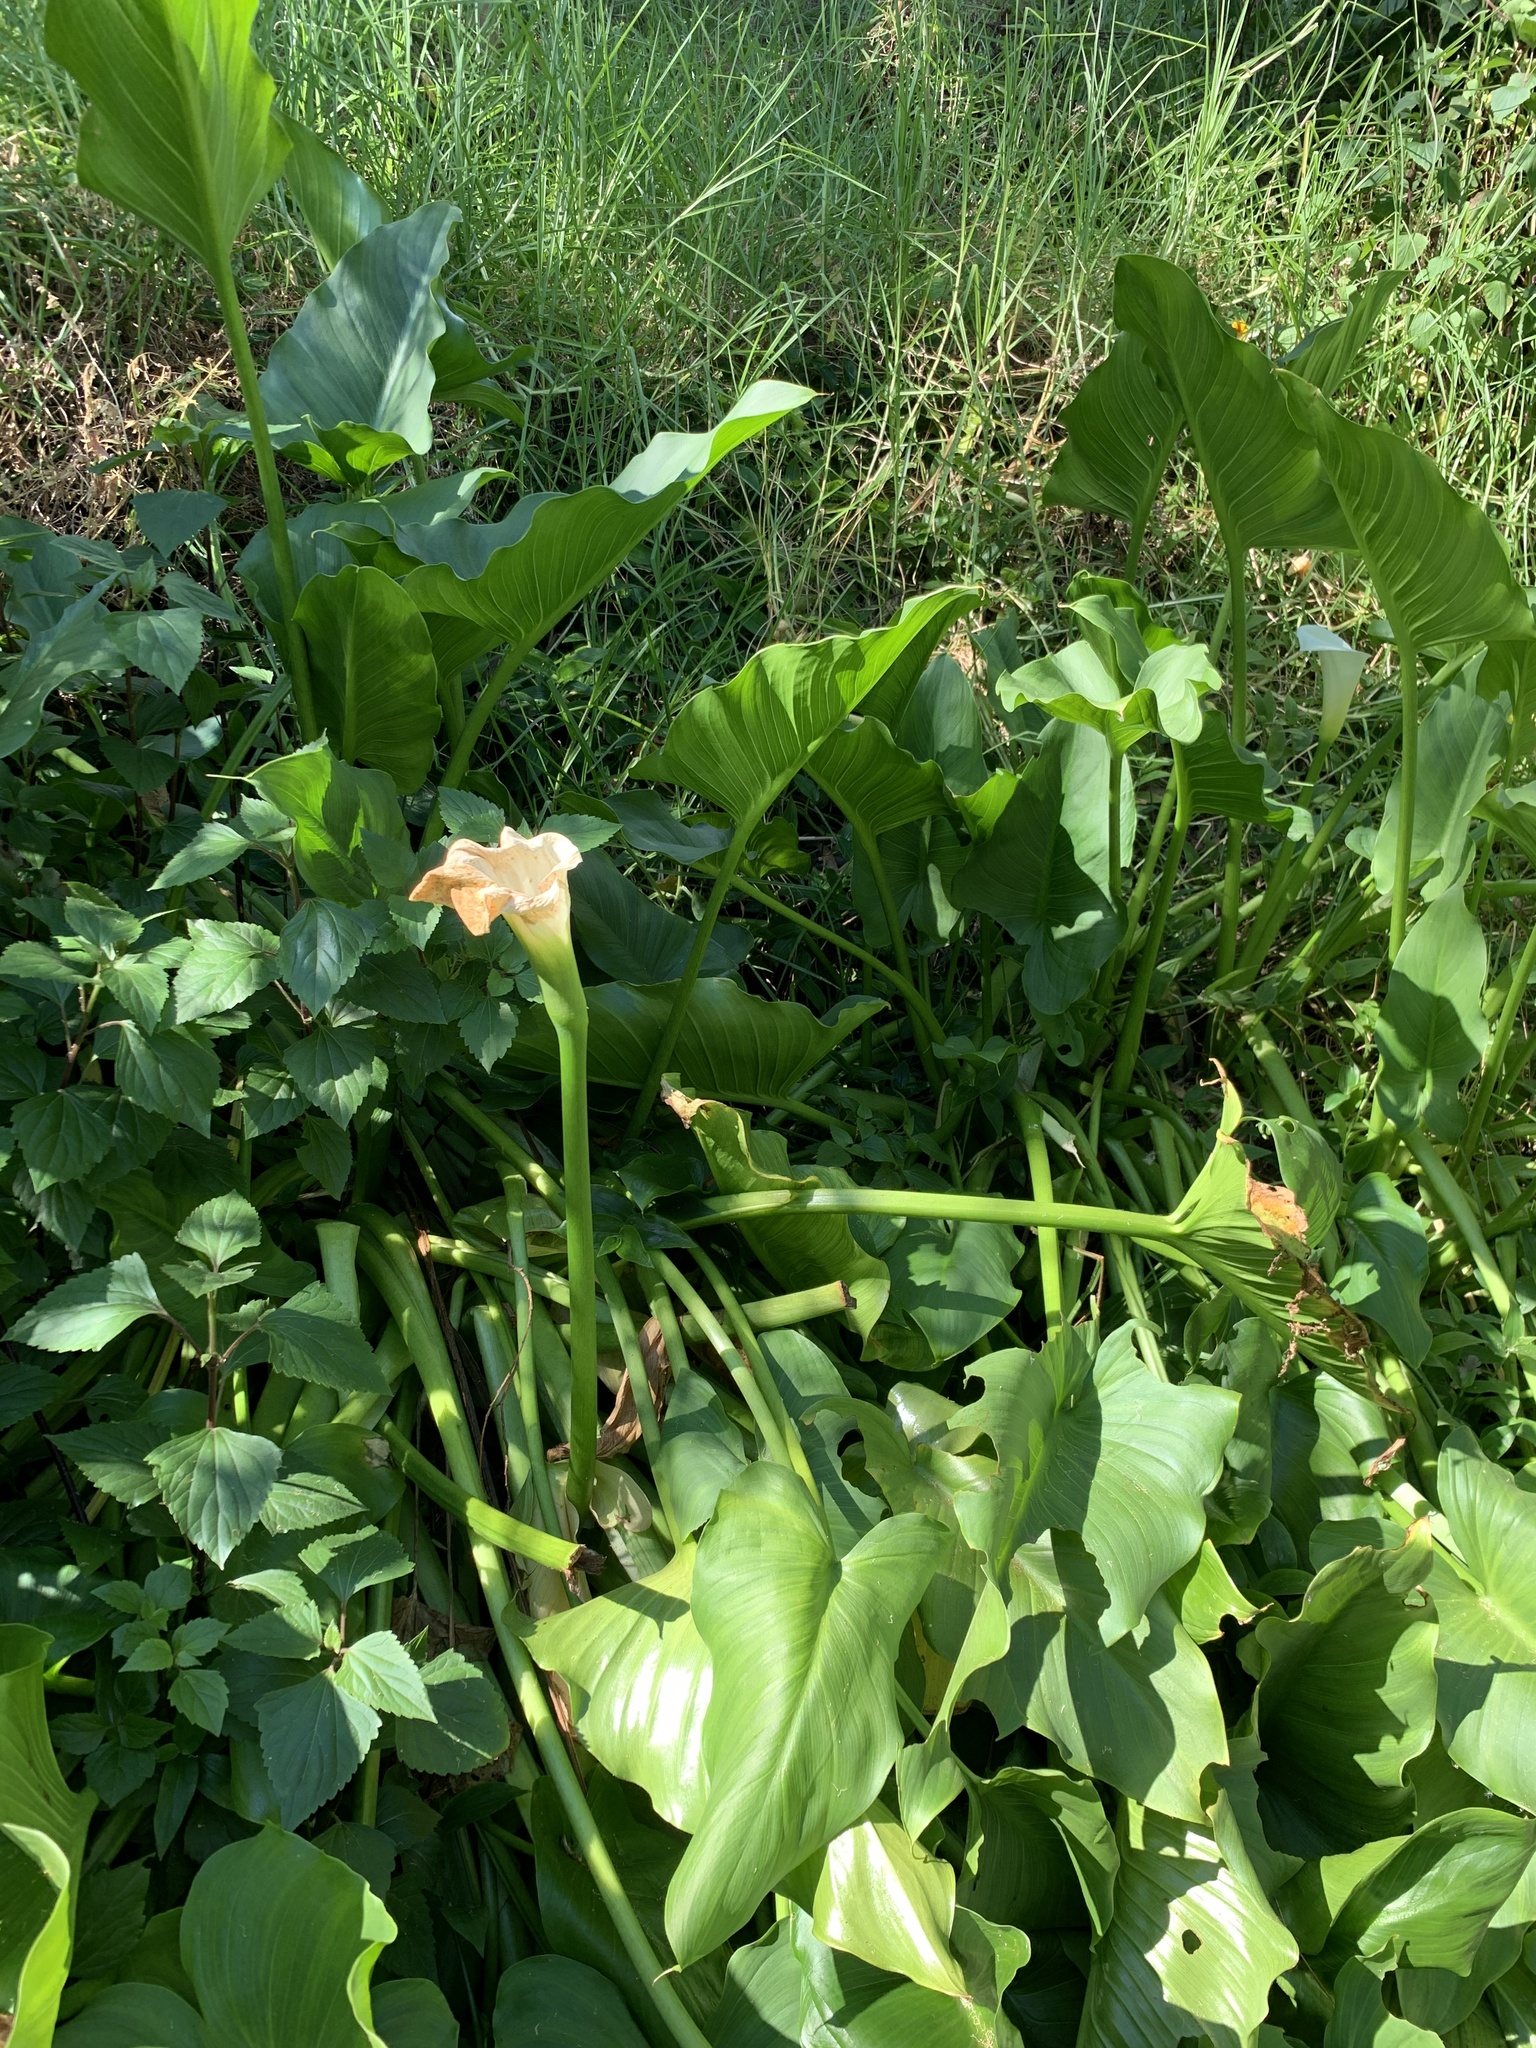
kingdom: Plantae
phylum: Tracheophyta
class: Liliopsida
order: Alismatales
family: Araceae
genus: Zantedeschia
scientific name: Zantedeschia aethiopica
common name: Altar-lily
